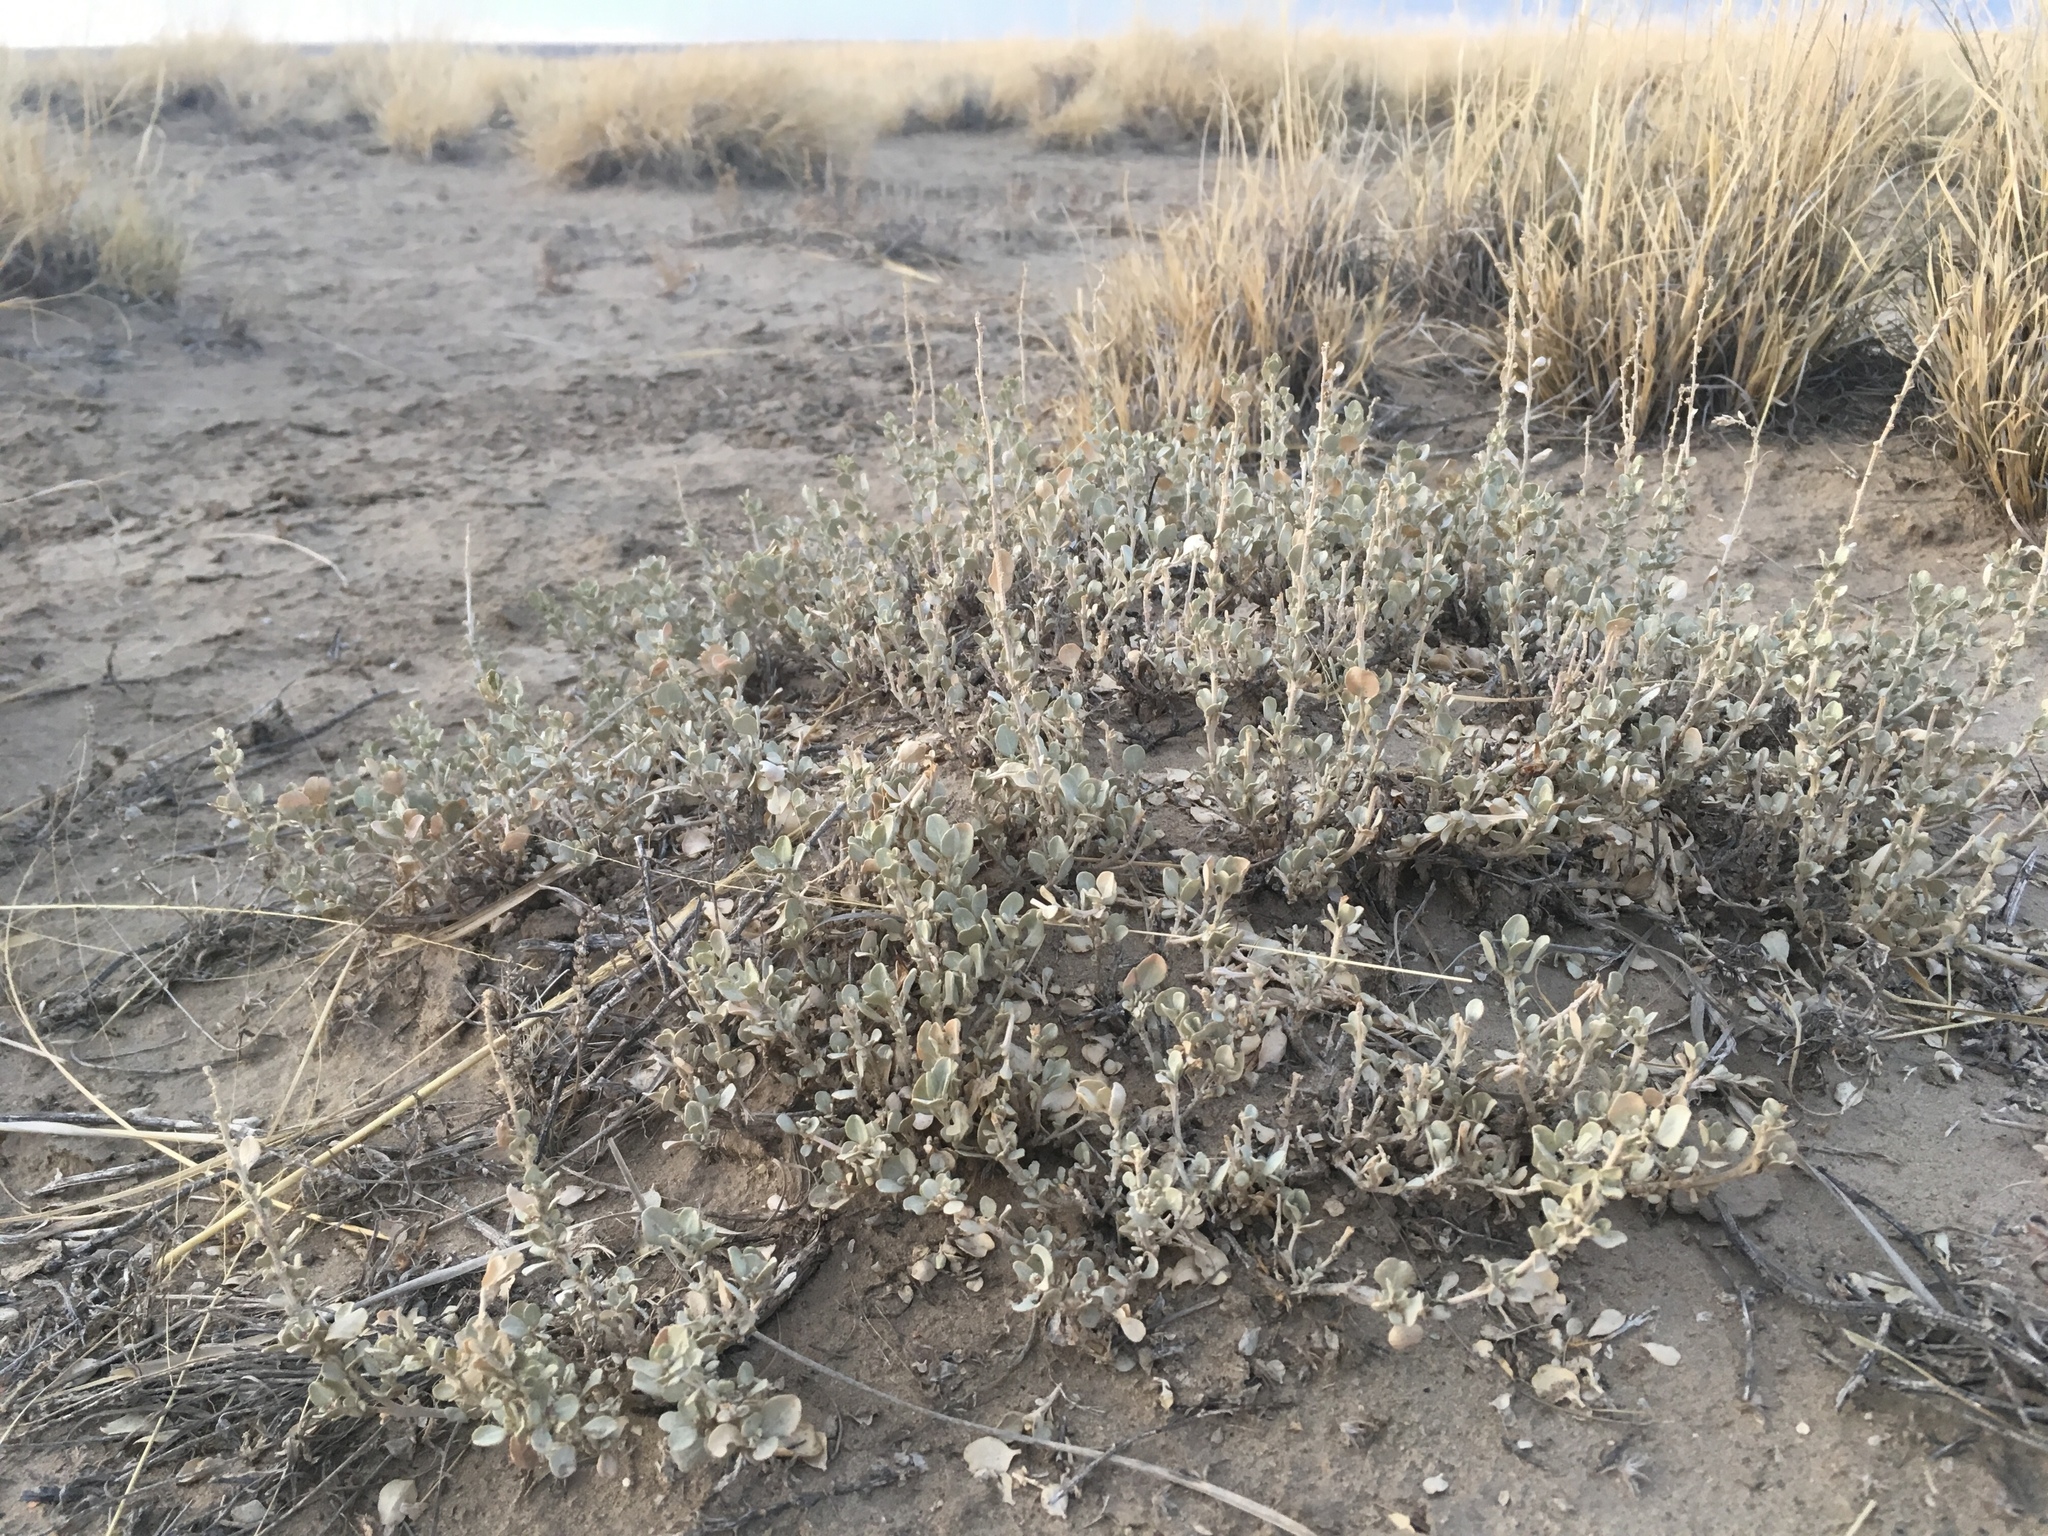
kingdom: Plantae
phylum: Tracheophyta
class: Magnoliopsida
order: Caryophyllales
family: Amaranthaceae
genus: Atriplex
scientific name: Atriplex obovata
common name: New mexico saltbush
